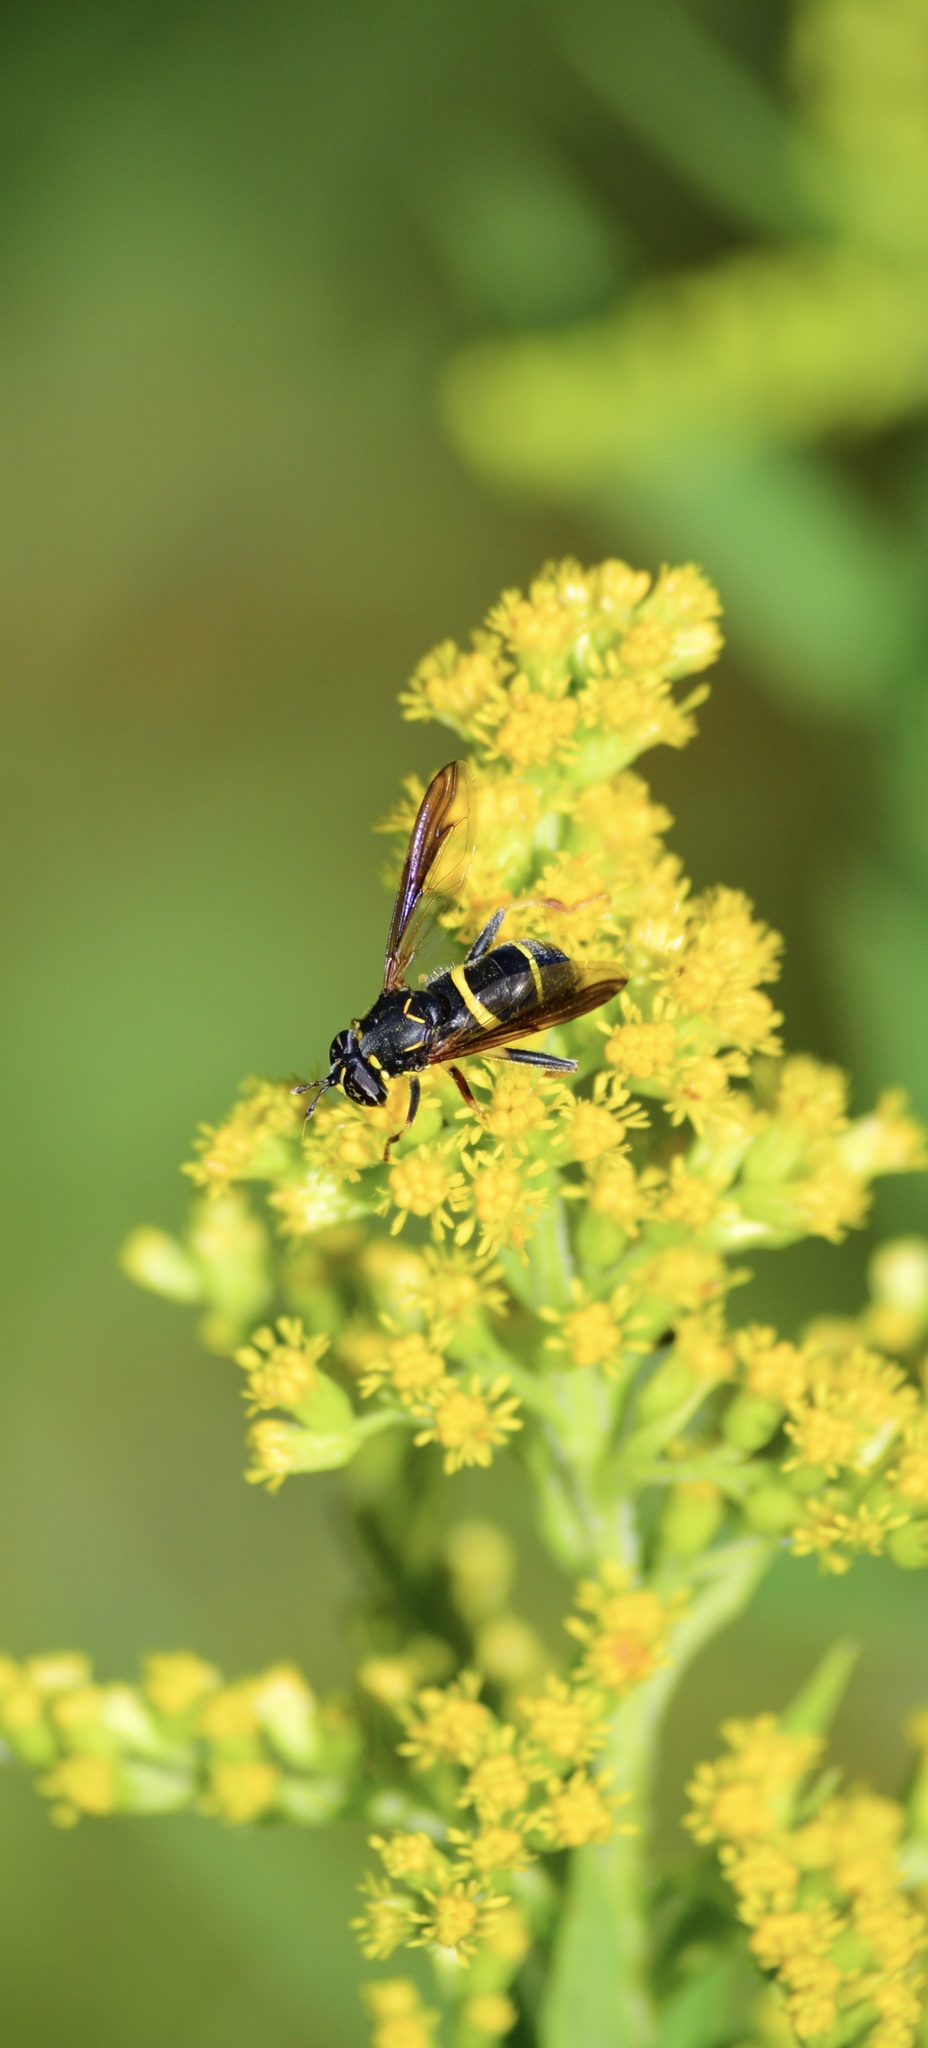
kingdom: Animalia
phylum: Arthropoda
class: Insecta
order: Diptera
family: Syrphidae
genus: Spilomyia
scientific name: Spilomyia sayi
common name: Four-lined hornet fly
